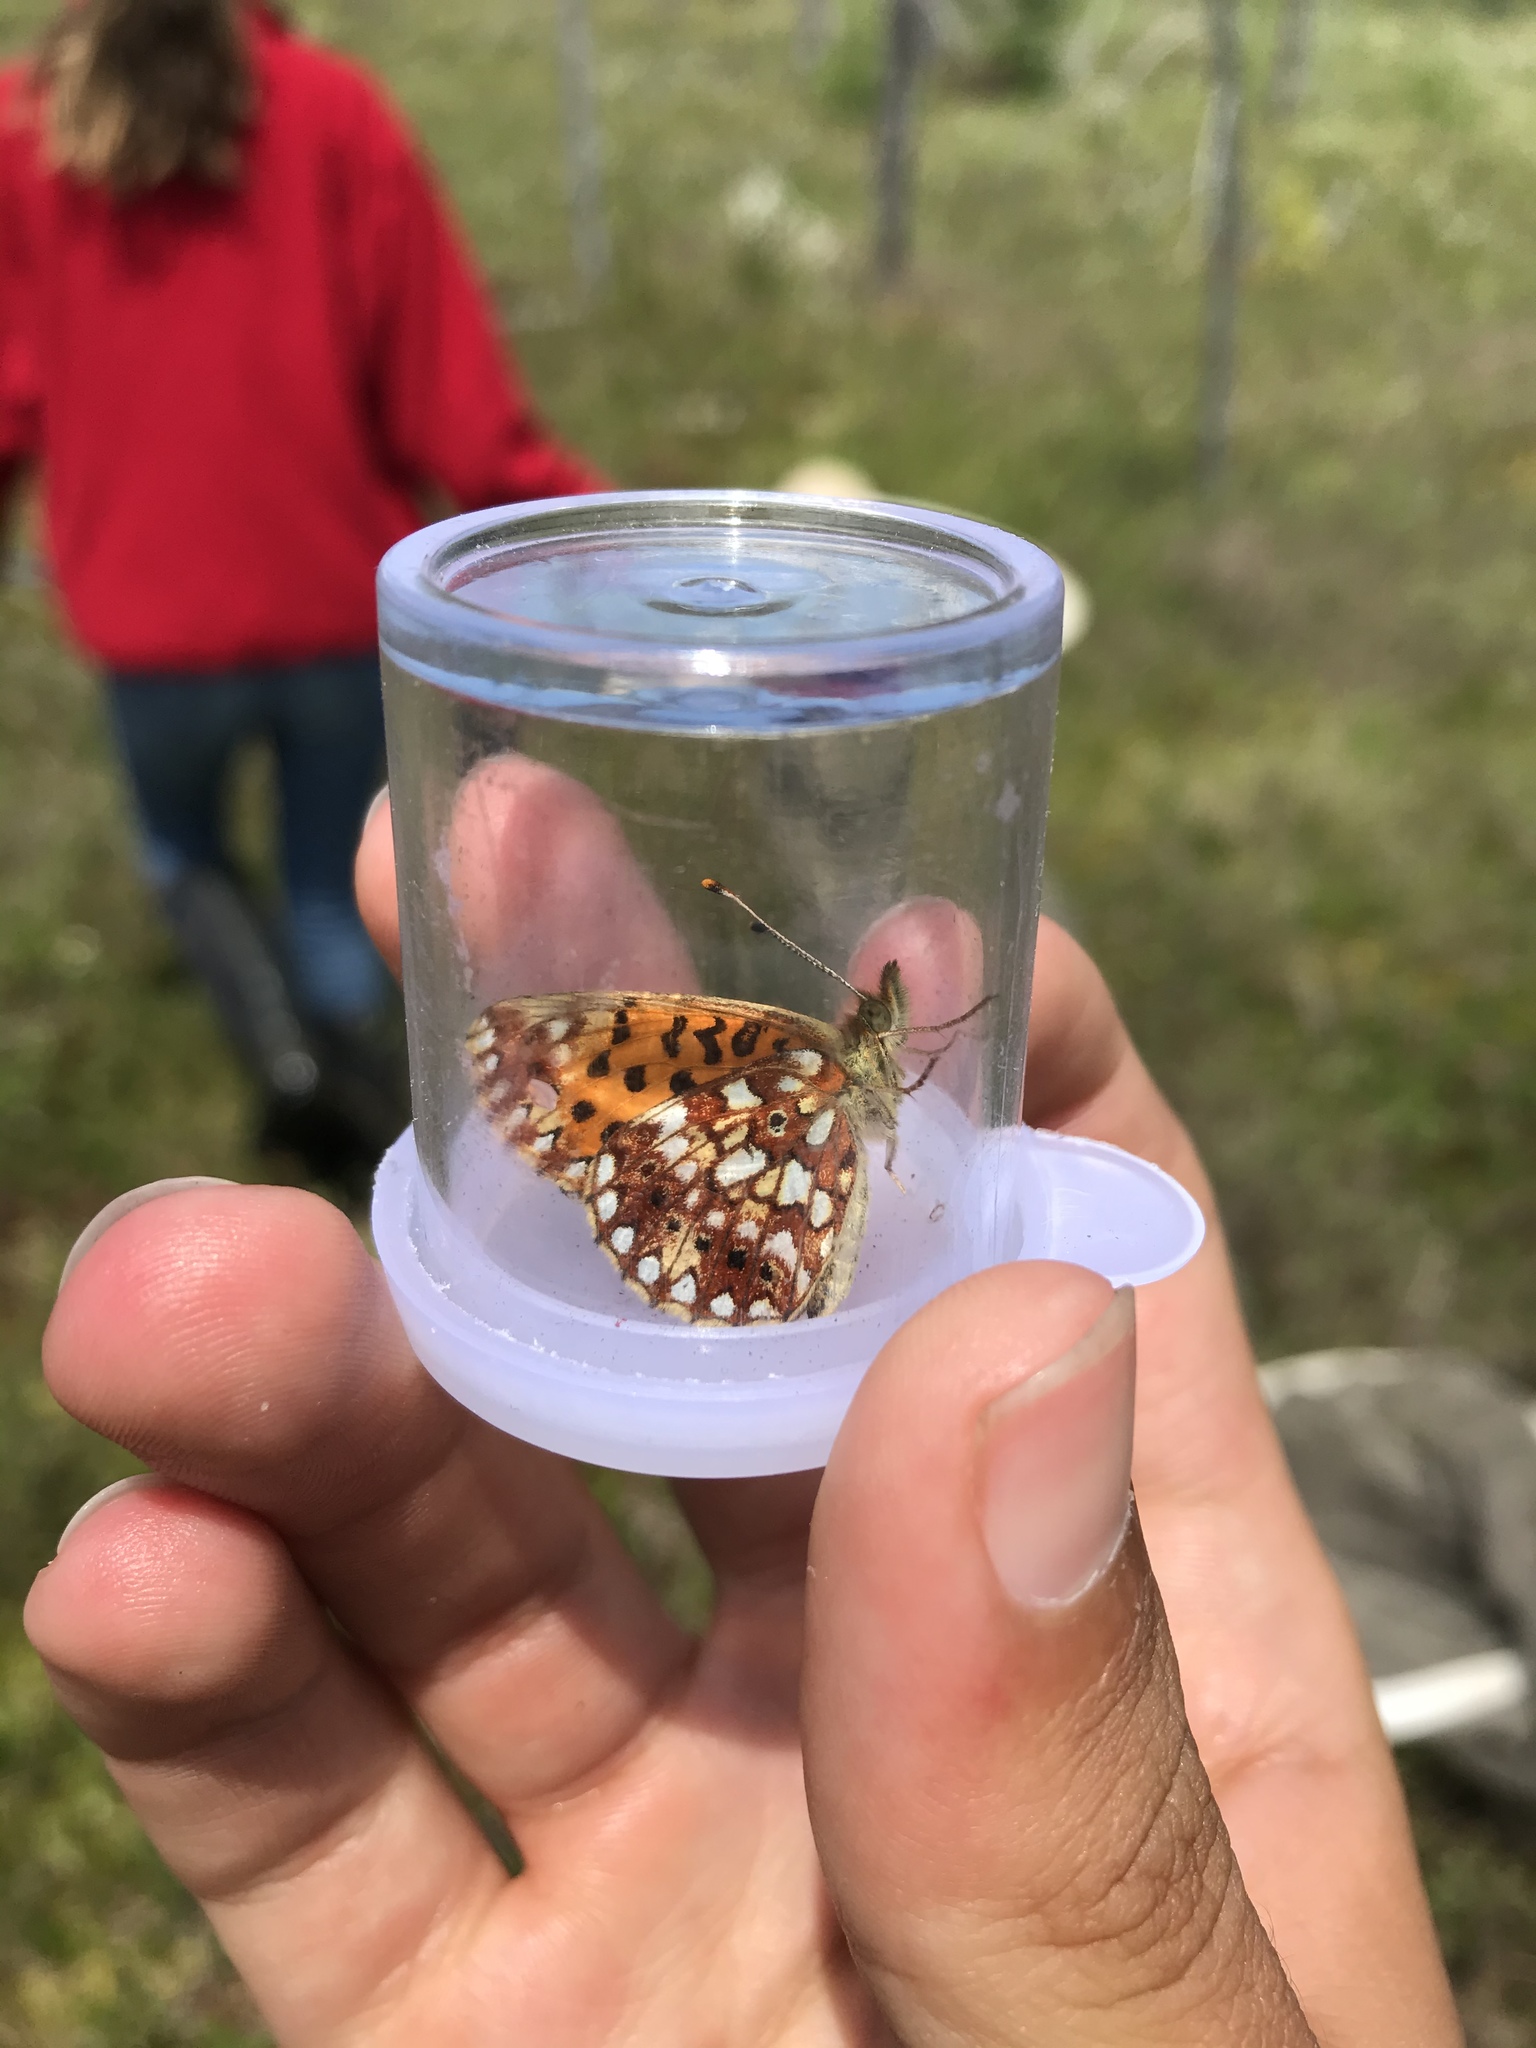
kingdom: Animalia
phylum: Arthropoda
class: Insecta
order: Lepidoptera
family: Nymphalidae
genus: Boloria
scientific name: Boloria
